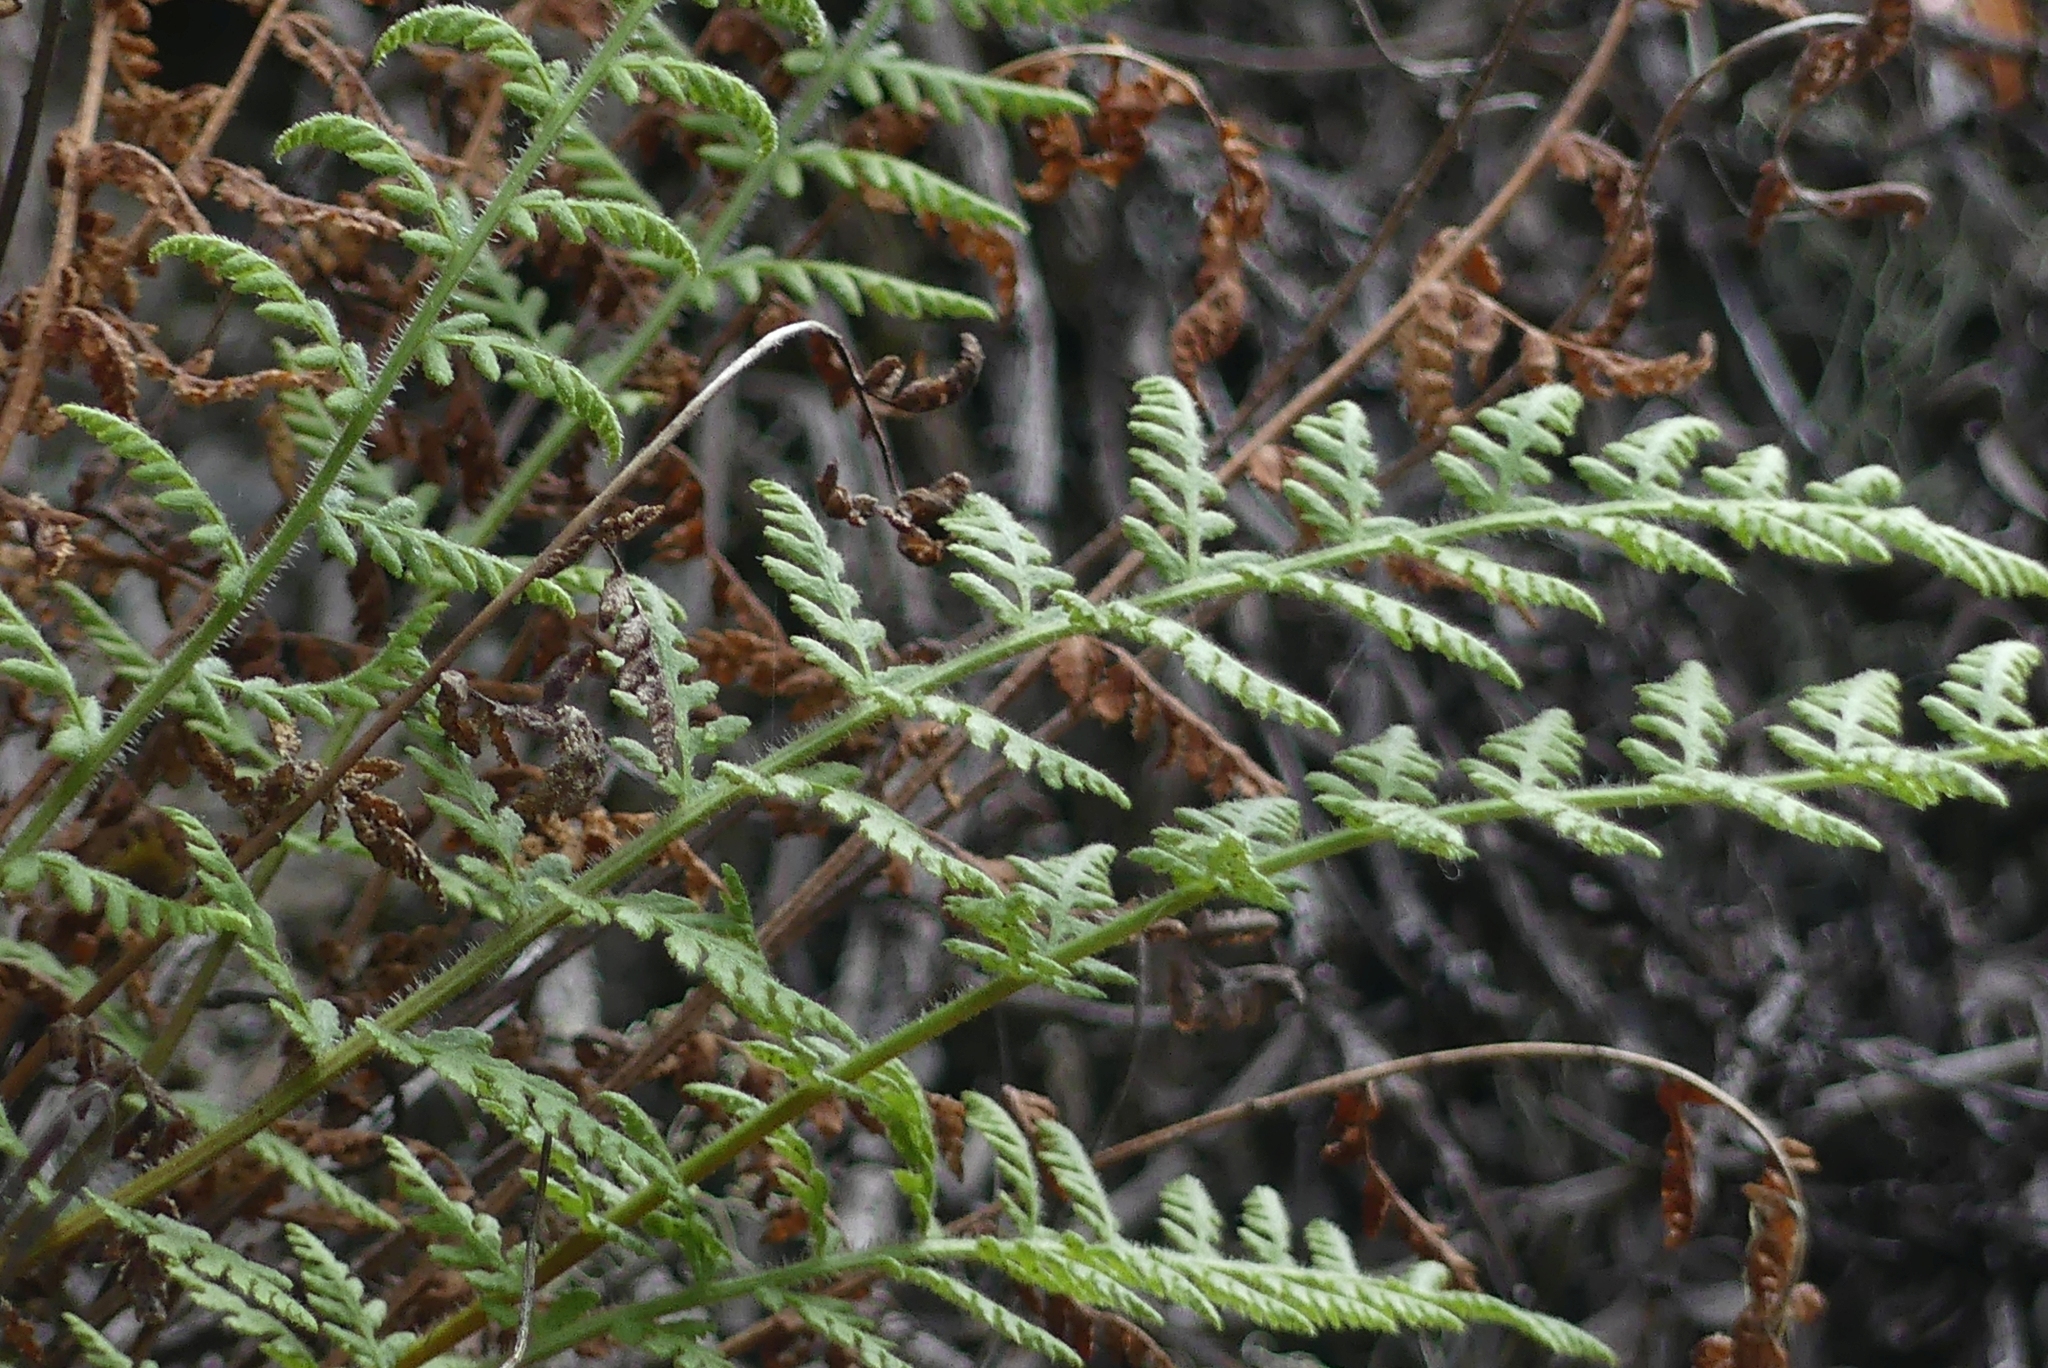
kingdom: Plantae
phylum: Tracheophyta
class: Polypodiopsida
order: Polypodiales
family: Woodsiaceae
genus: Physematium
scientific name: Physematium scopulinum
